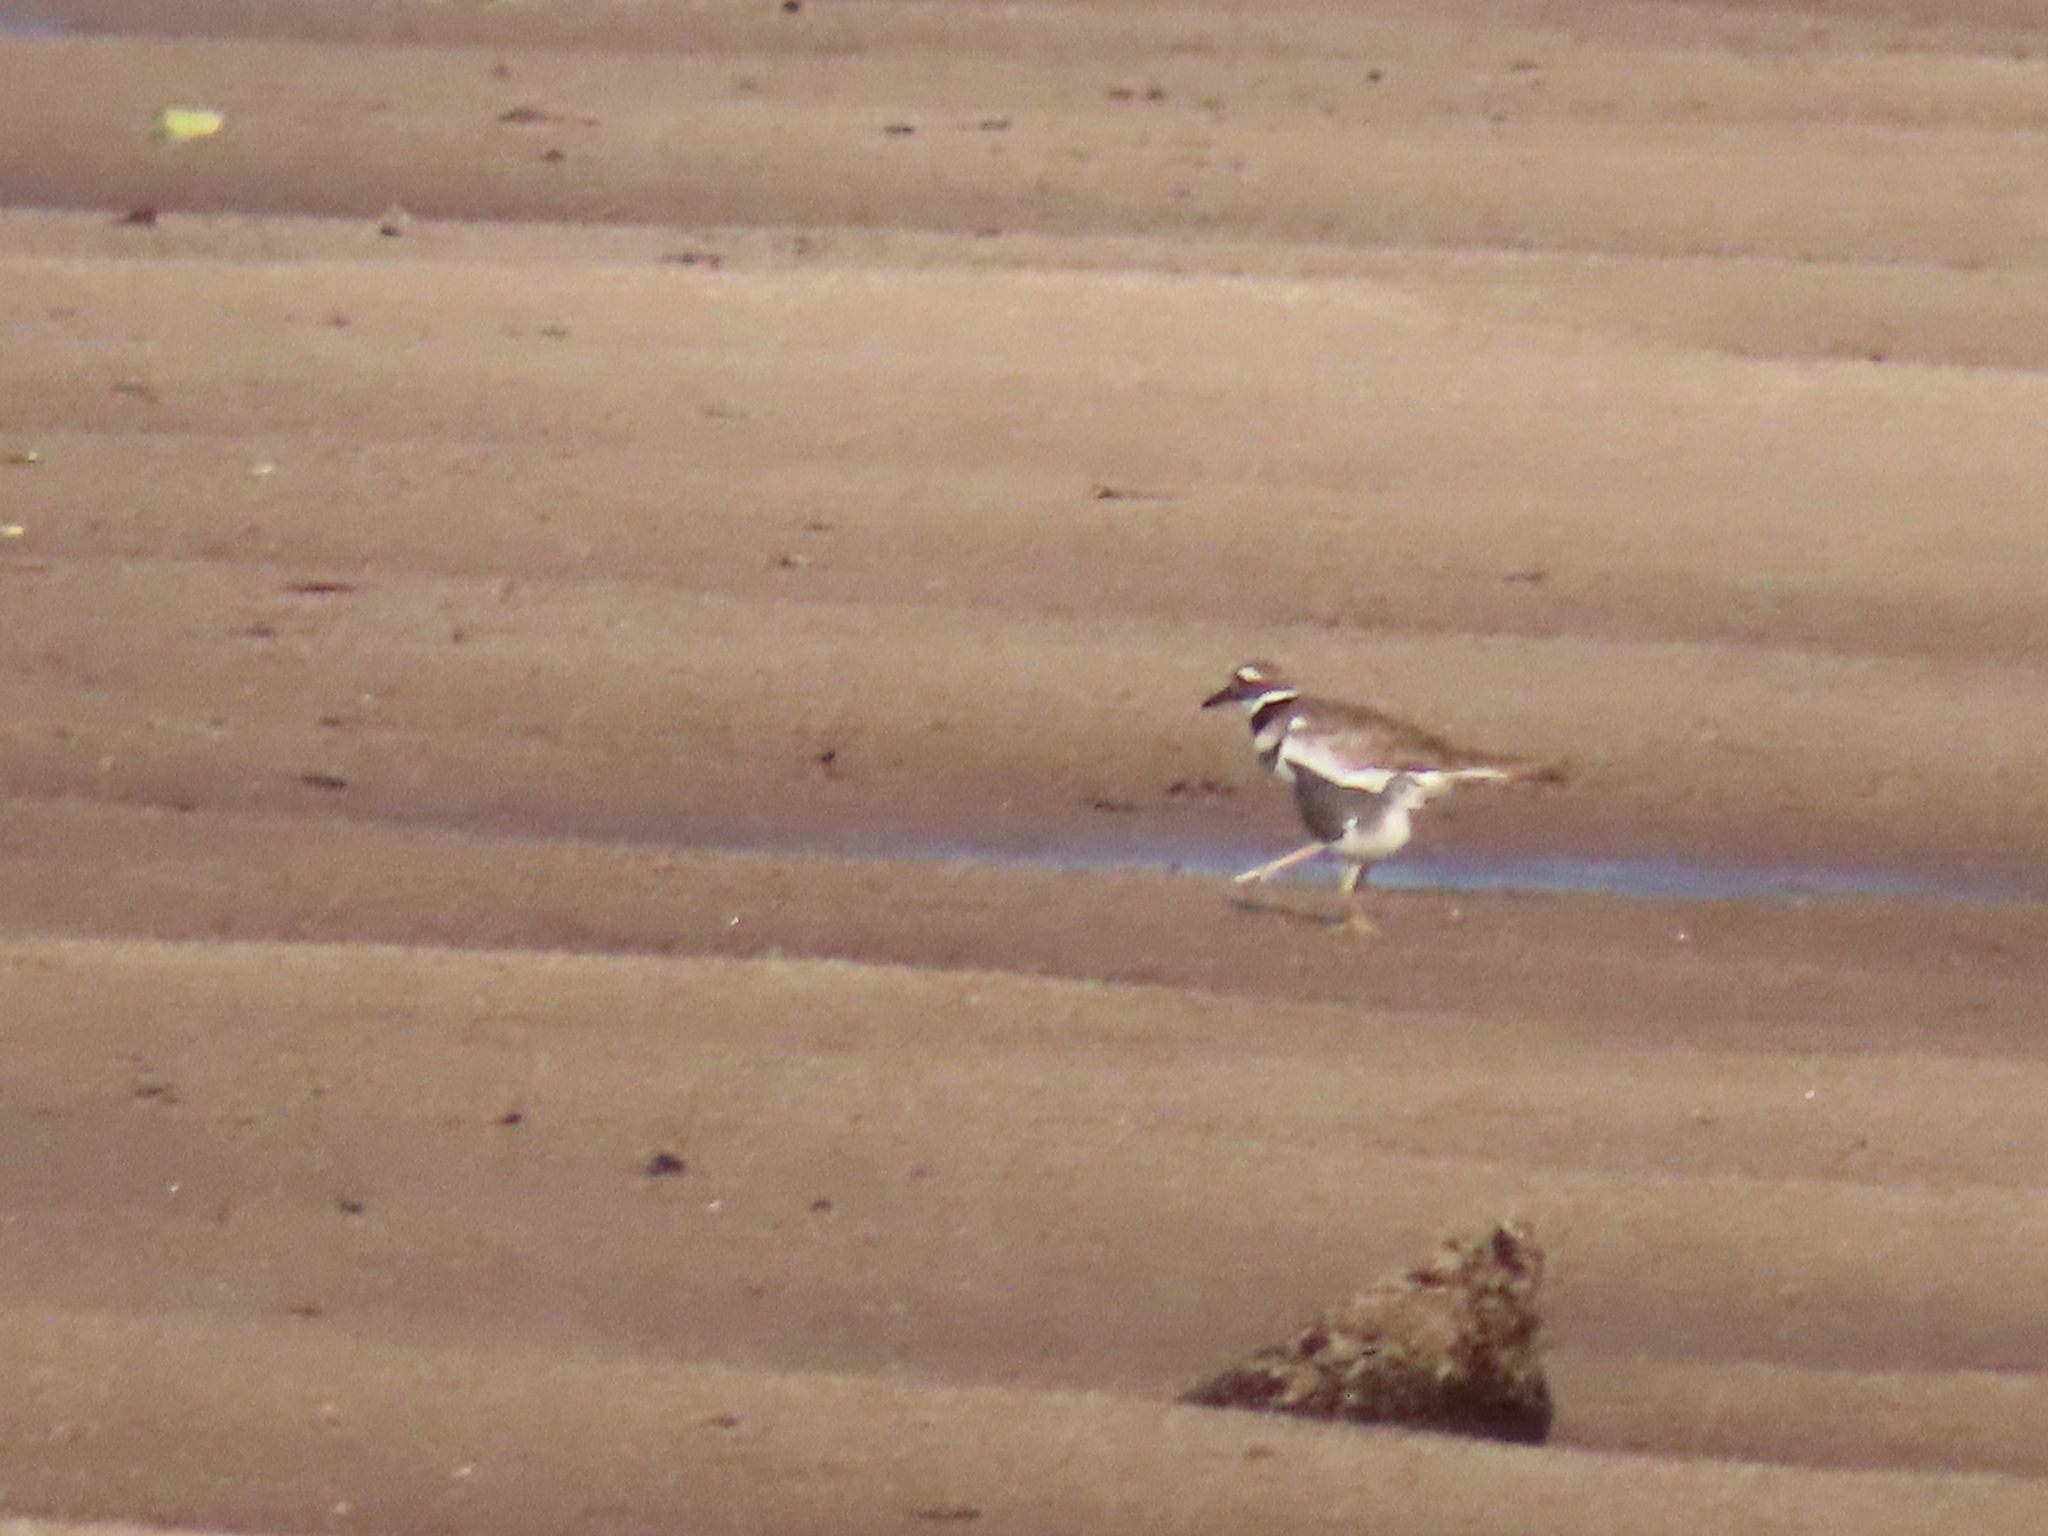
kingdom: Animalia
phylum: Chordata
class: Aves
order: Charadriiformes
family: Charadriidae
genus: Charadrius
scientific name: Charadrius vociferus
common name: Killdeer
